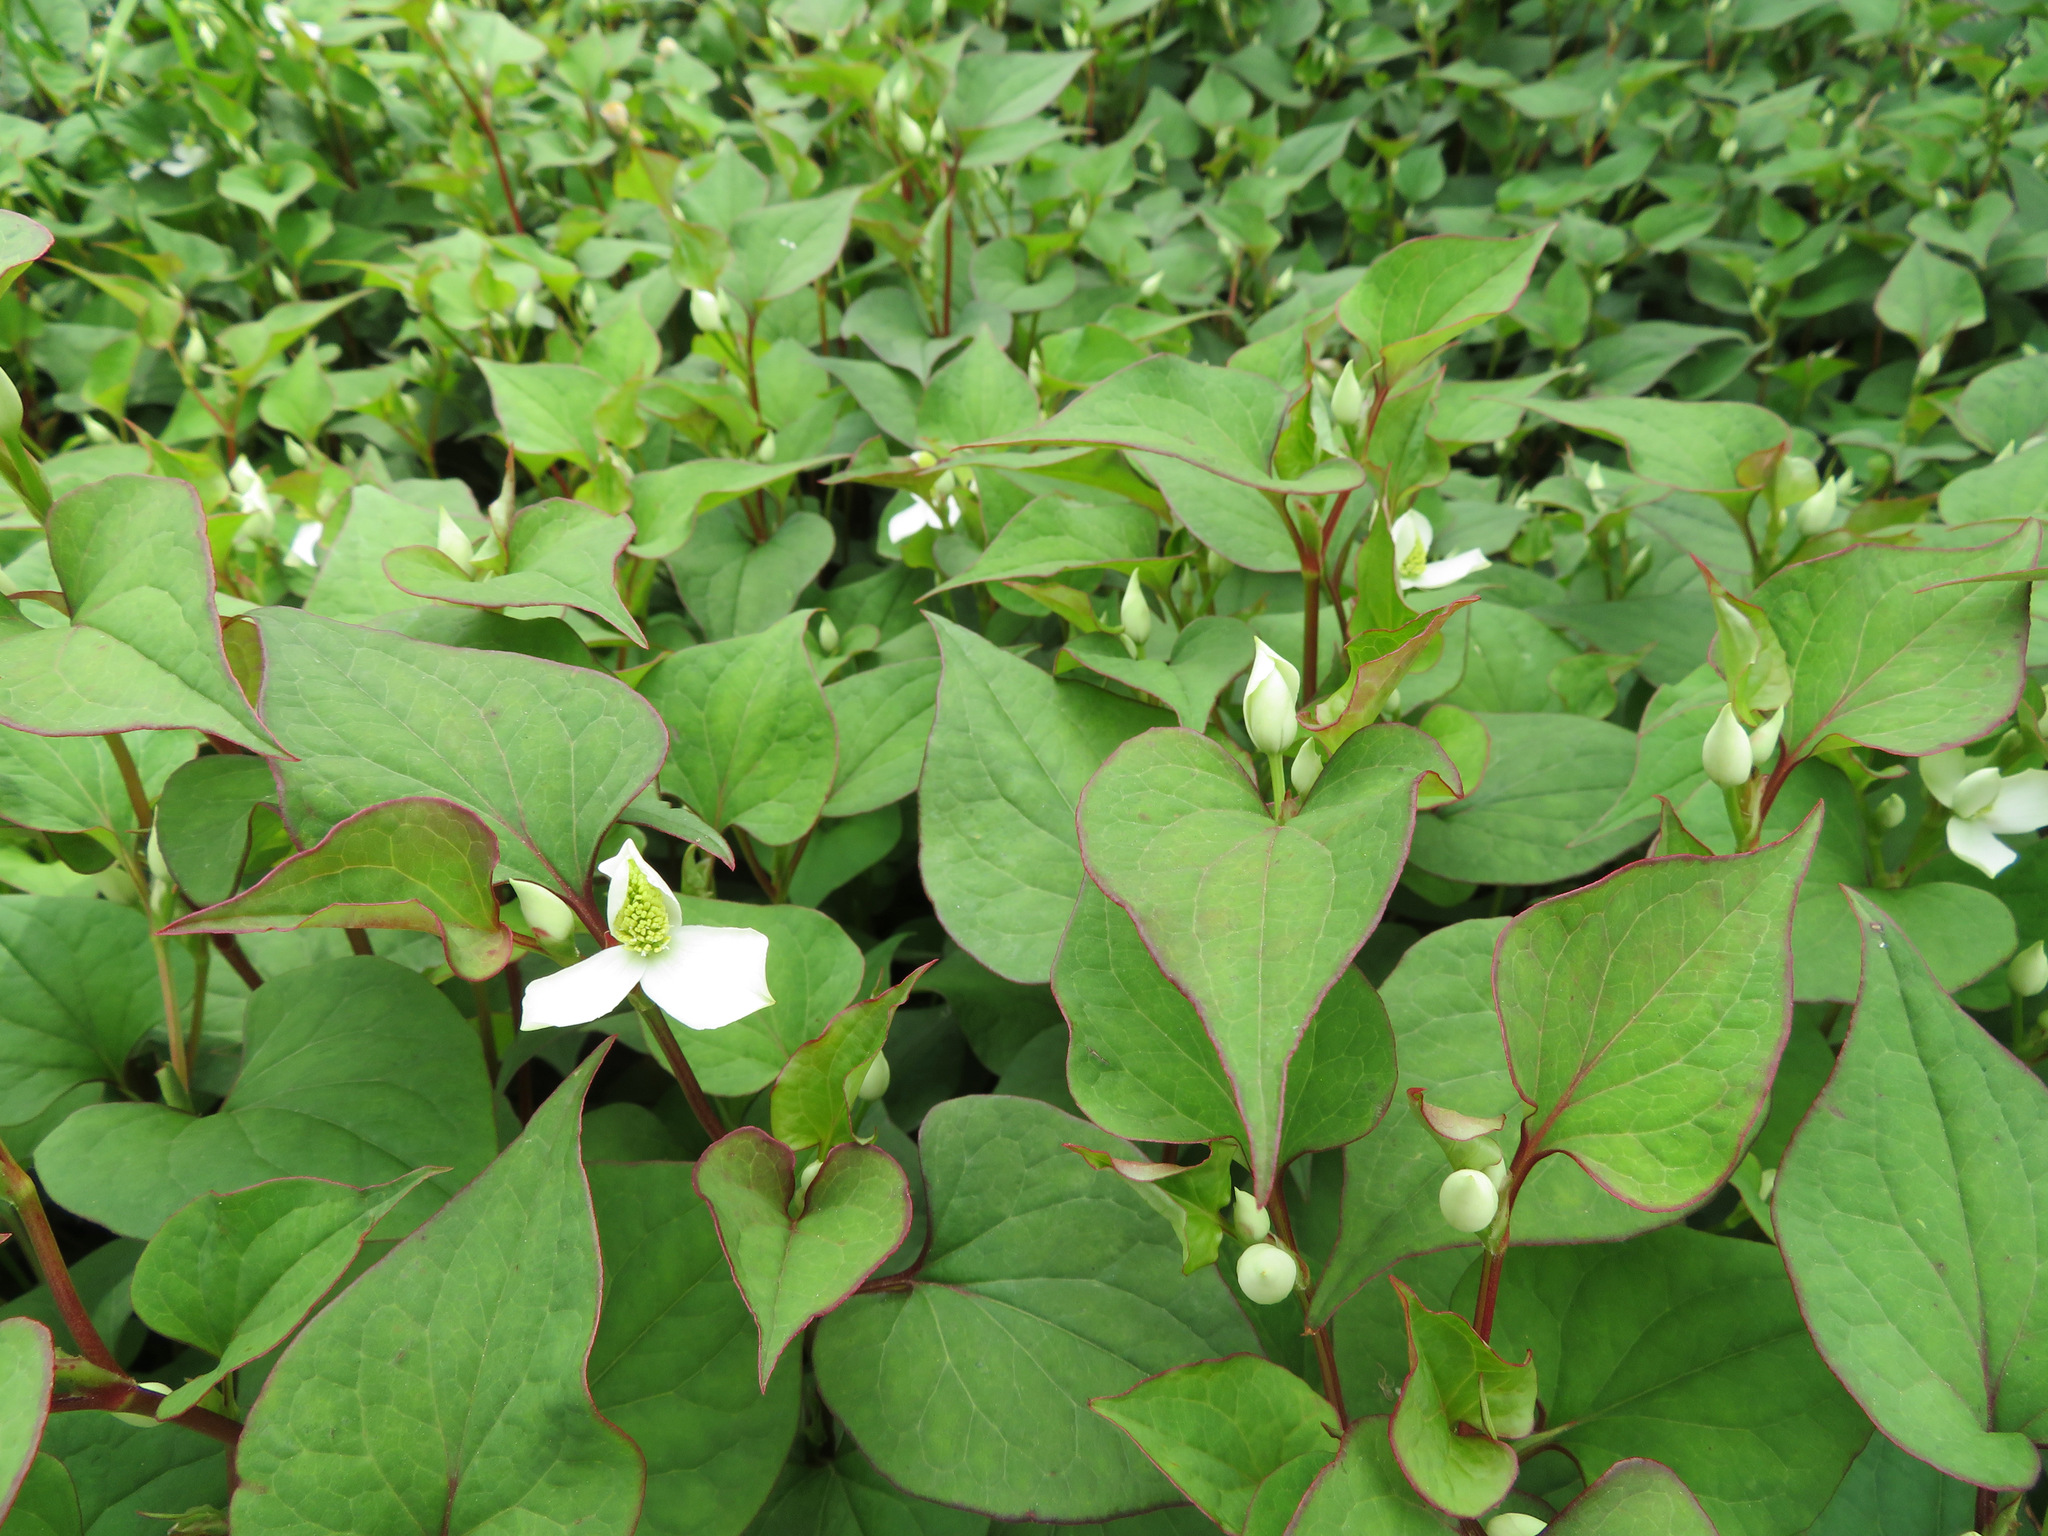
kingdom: Plantae
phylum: Tracheophyta
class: Magnoliopsida
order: Piperales
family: Saururaceae
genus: Houttuynia
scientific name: Houttuynia cordata
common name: Chameleon
